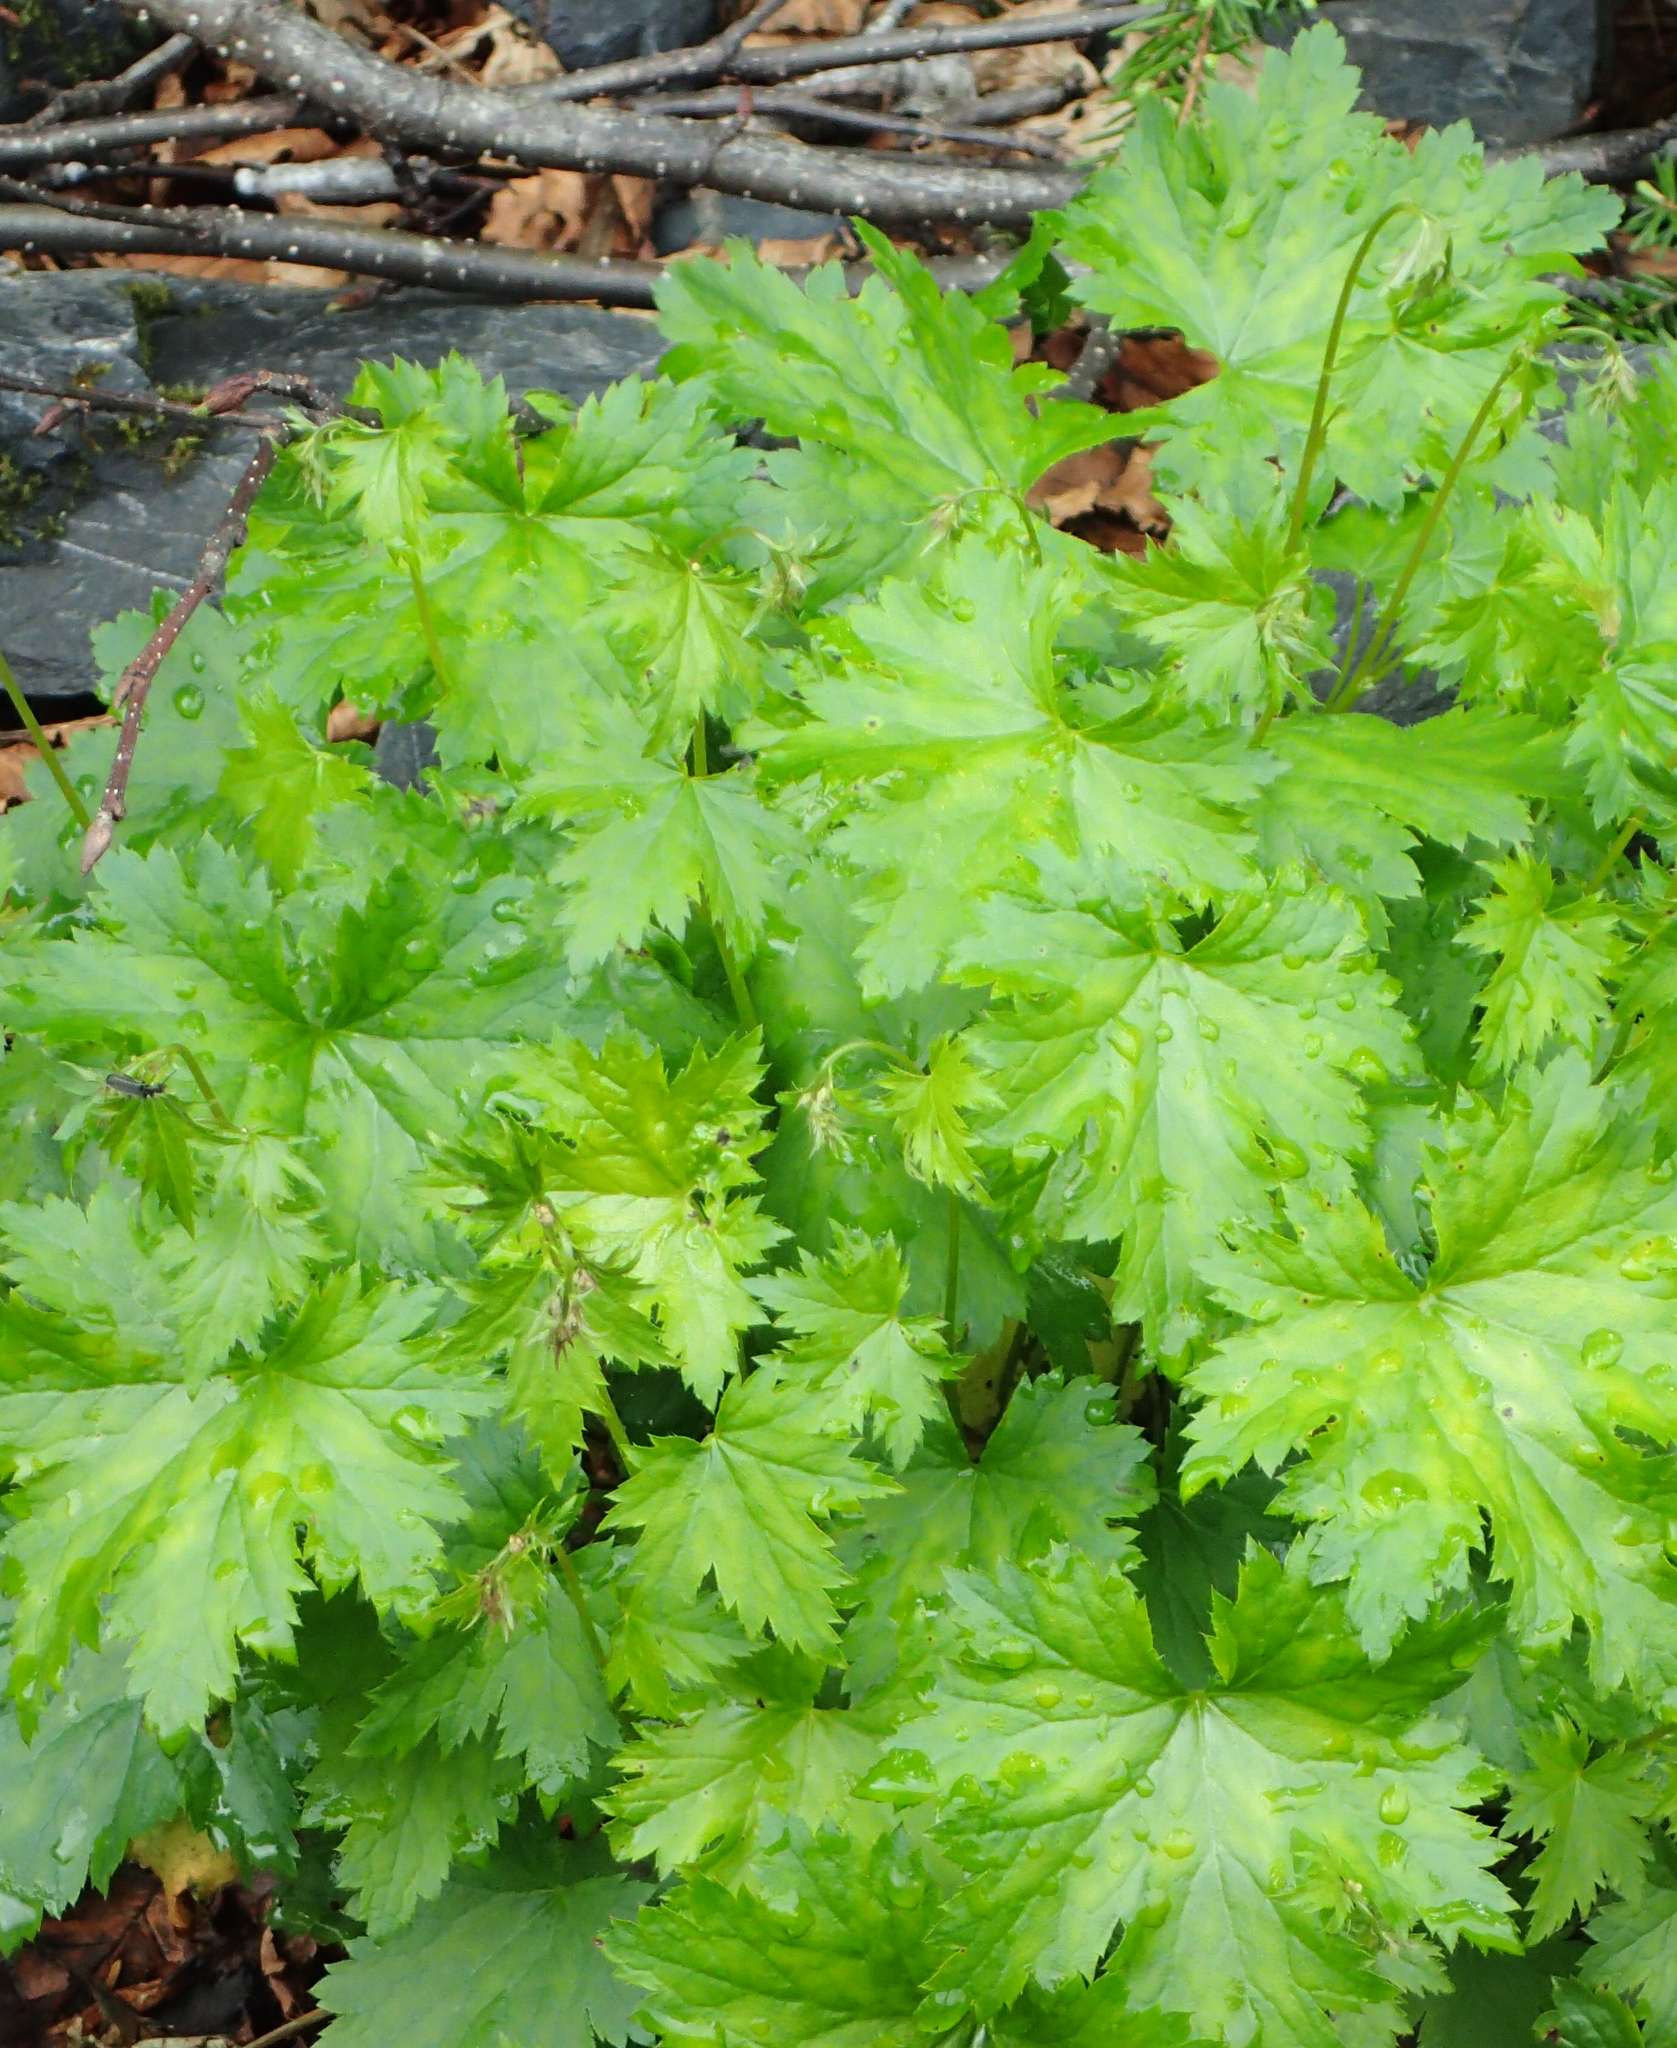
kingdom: Plantae
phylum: Tracheophyta
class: Magnoliopsida
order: Saxifragales
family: Saxifragaceae
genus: Heuchera
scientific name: Heuchera glabra
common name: Alpine alumroot
